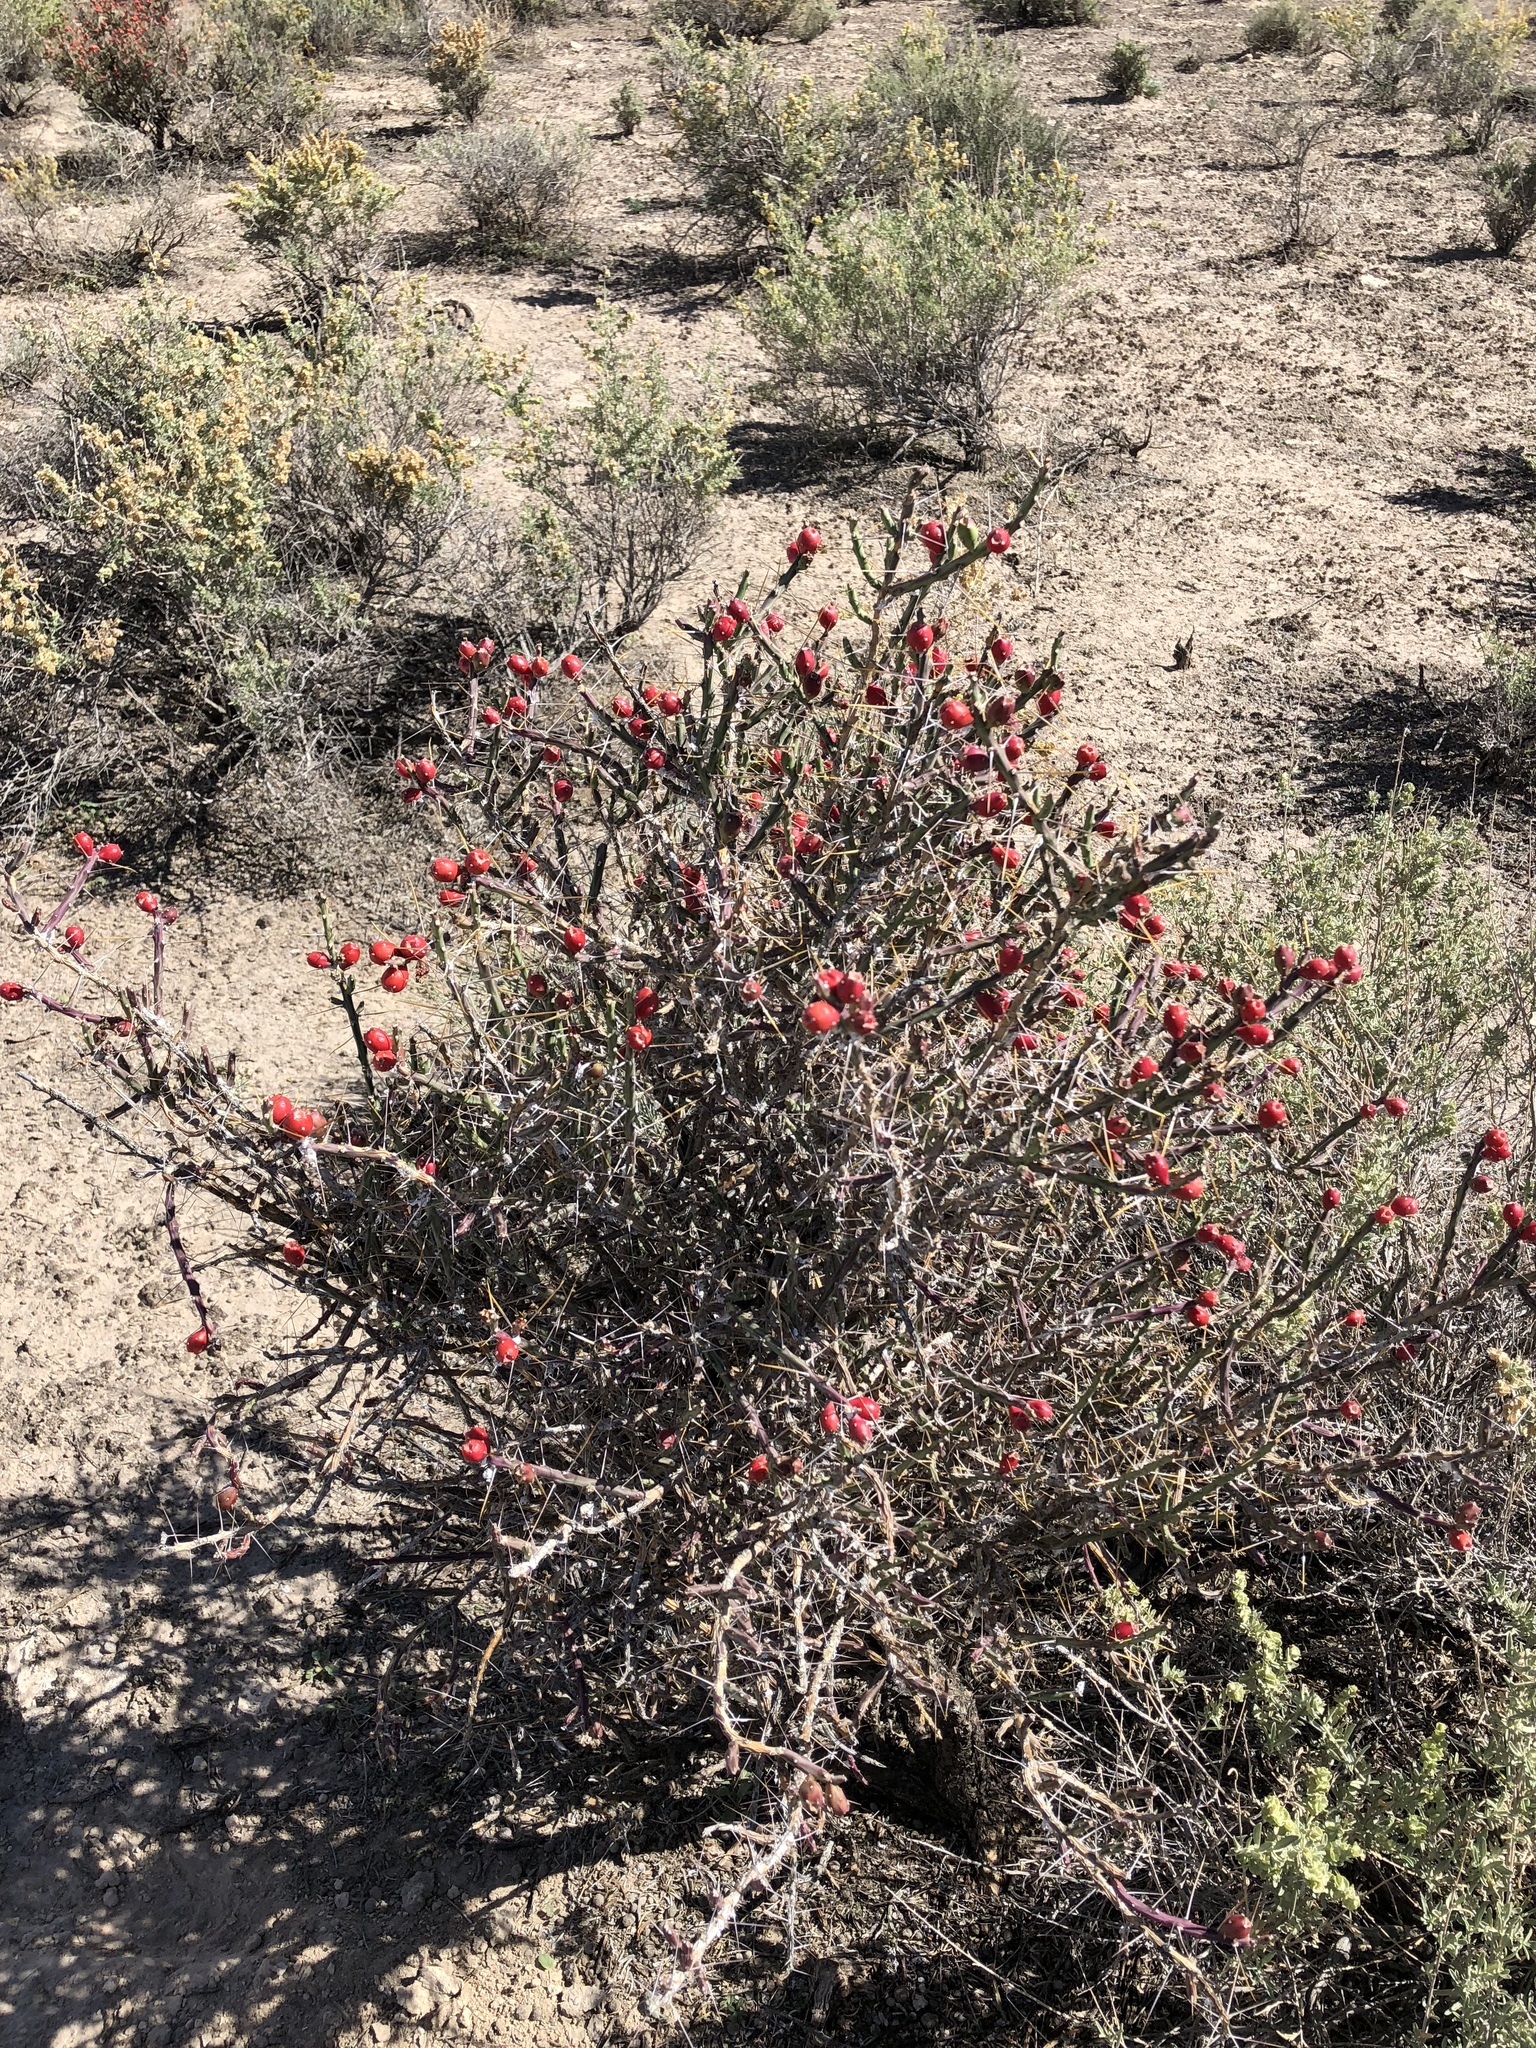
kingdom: Plantae
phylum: Tracheophyta
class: Magnoliopsida
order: Caryophyllales
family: Cactaceae
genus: Cylindropuntia
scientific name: Cylindropuntia leptocaulis
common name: Christmas cactus
